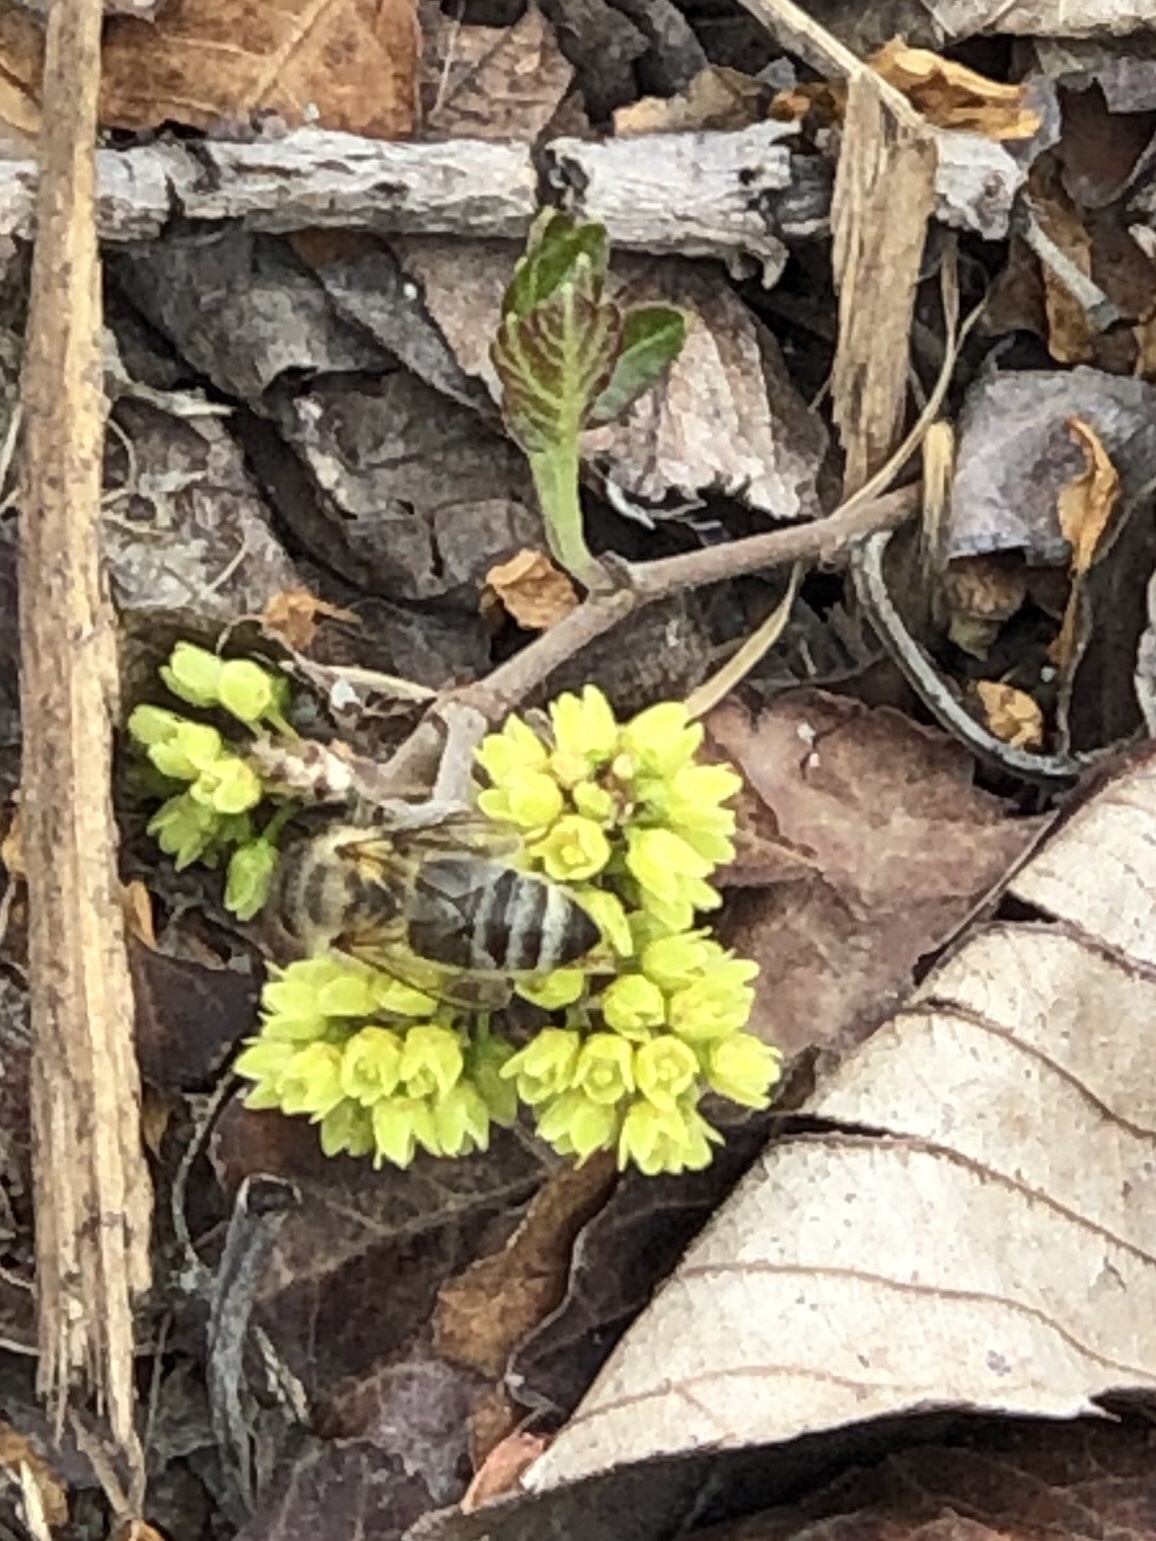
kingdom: Animalia
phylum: Arthropoda
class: Insecta
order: Hymenoptera
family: Apidae
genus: Apis
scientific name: Apis mellifera
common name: Honey bee
